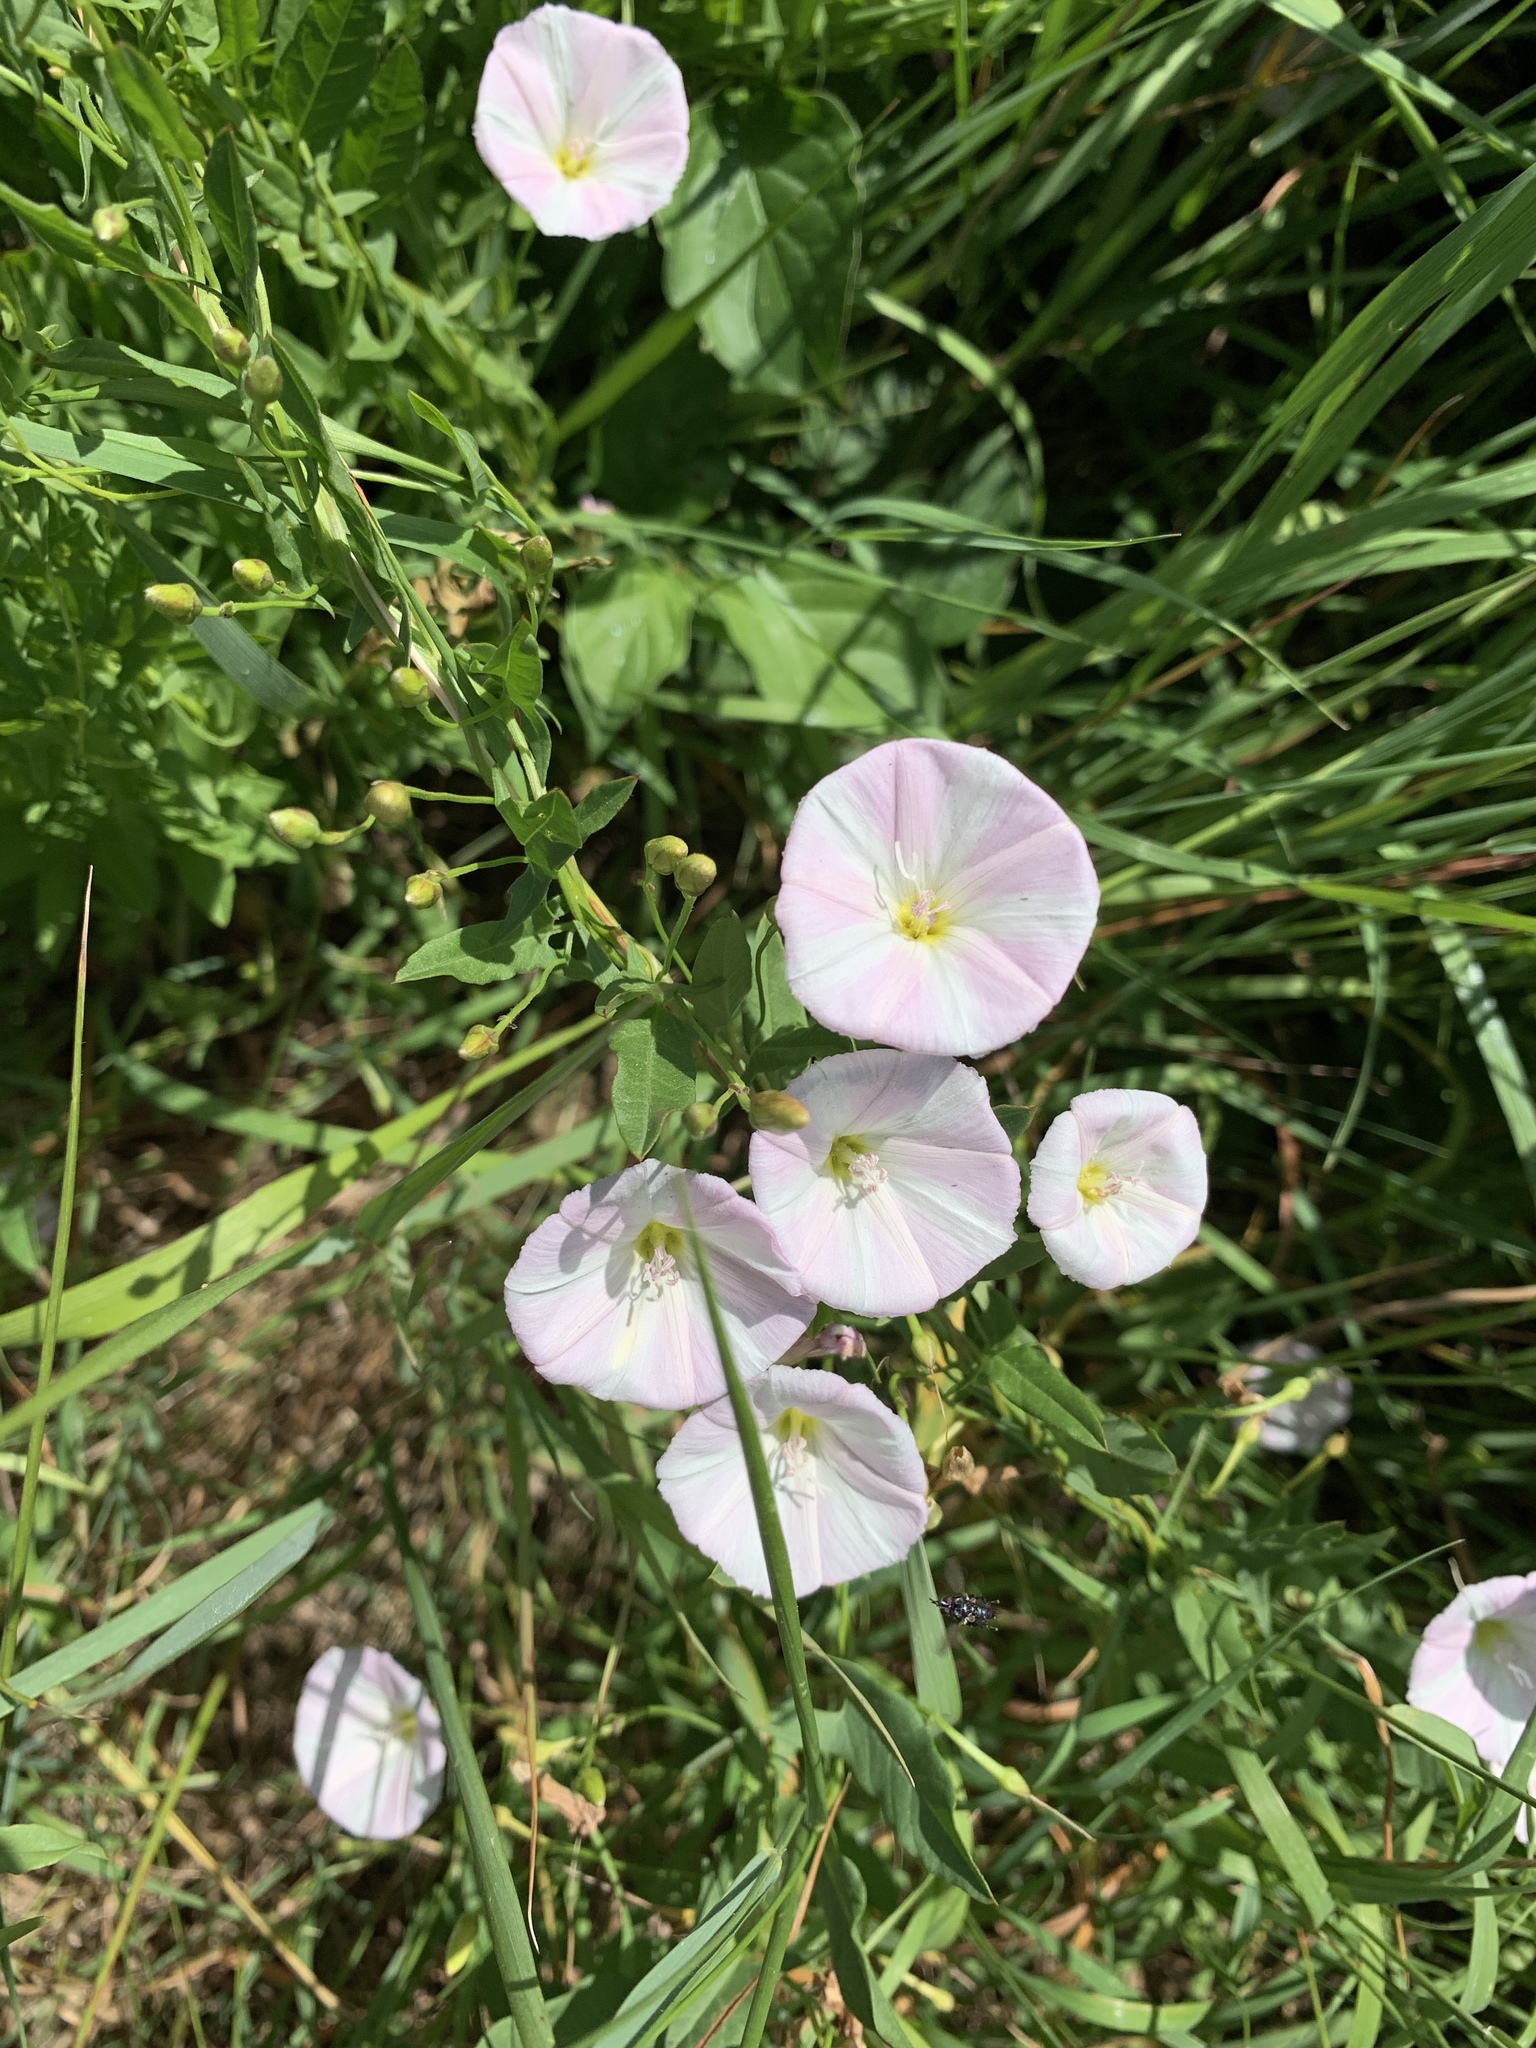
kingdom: Plantae
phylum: Tracheophyta
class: Magnoliopsida
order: Solanales
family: Convolvulaceae
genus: Convolvulus
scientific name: Convolvulus arvensis
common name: Field bindweed
